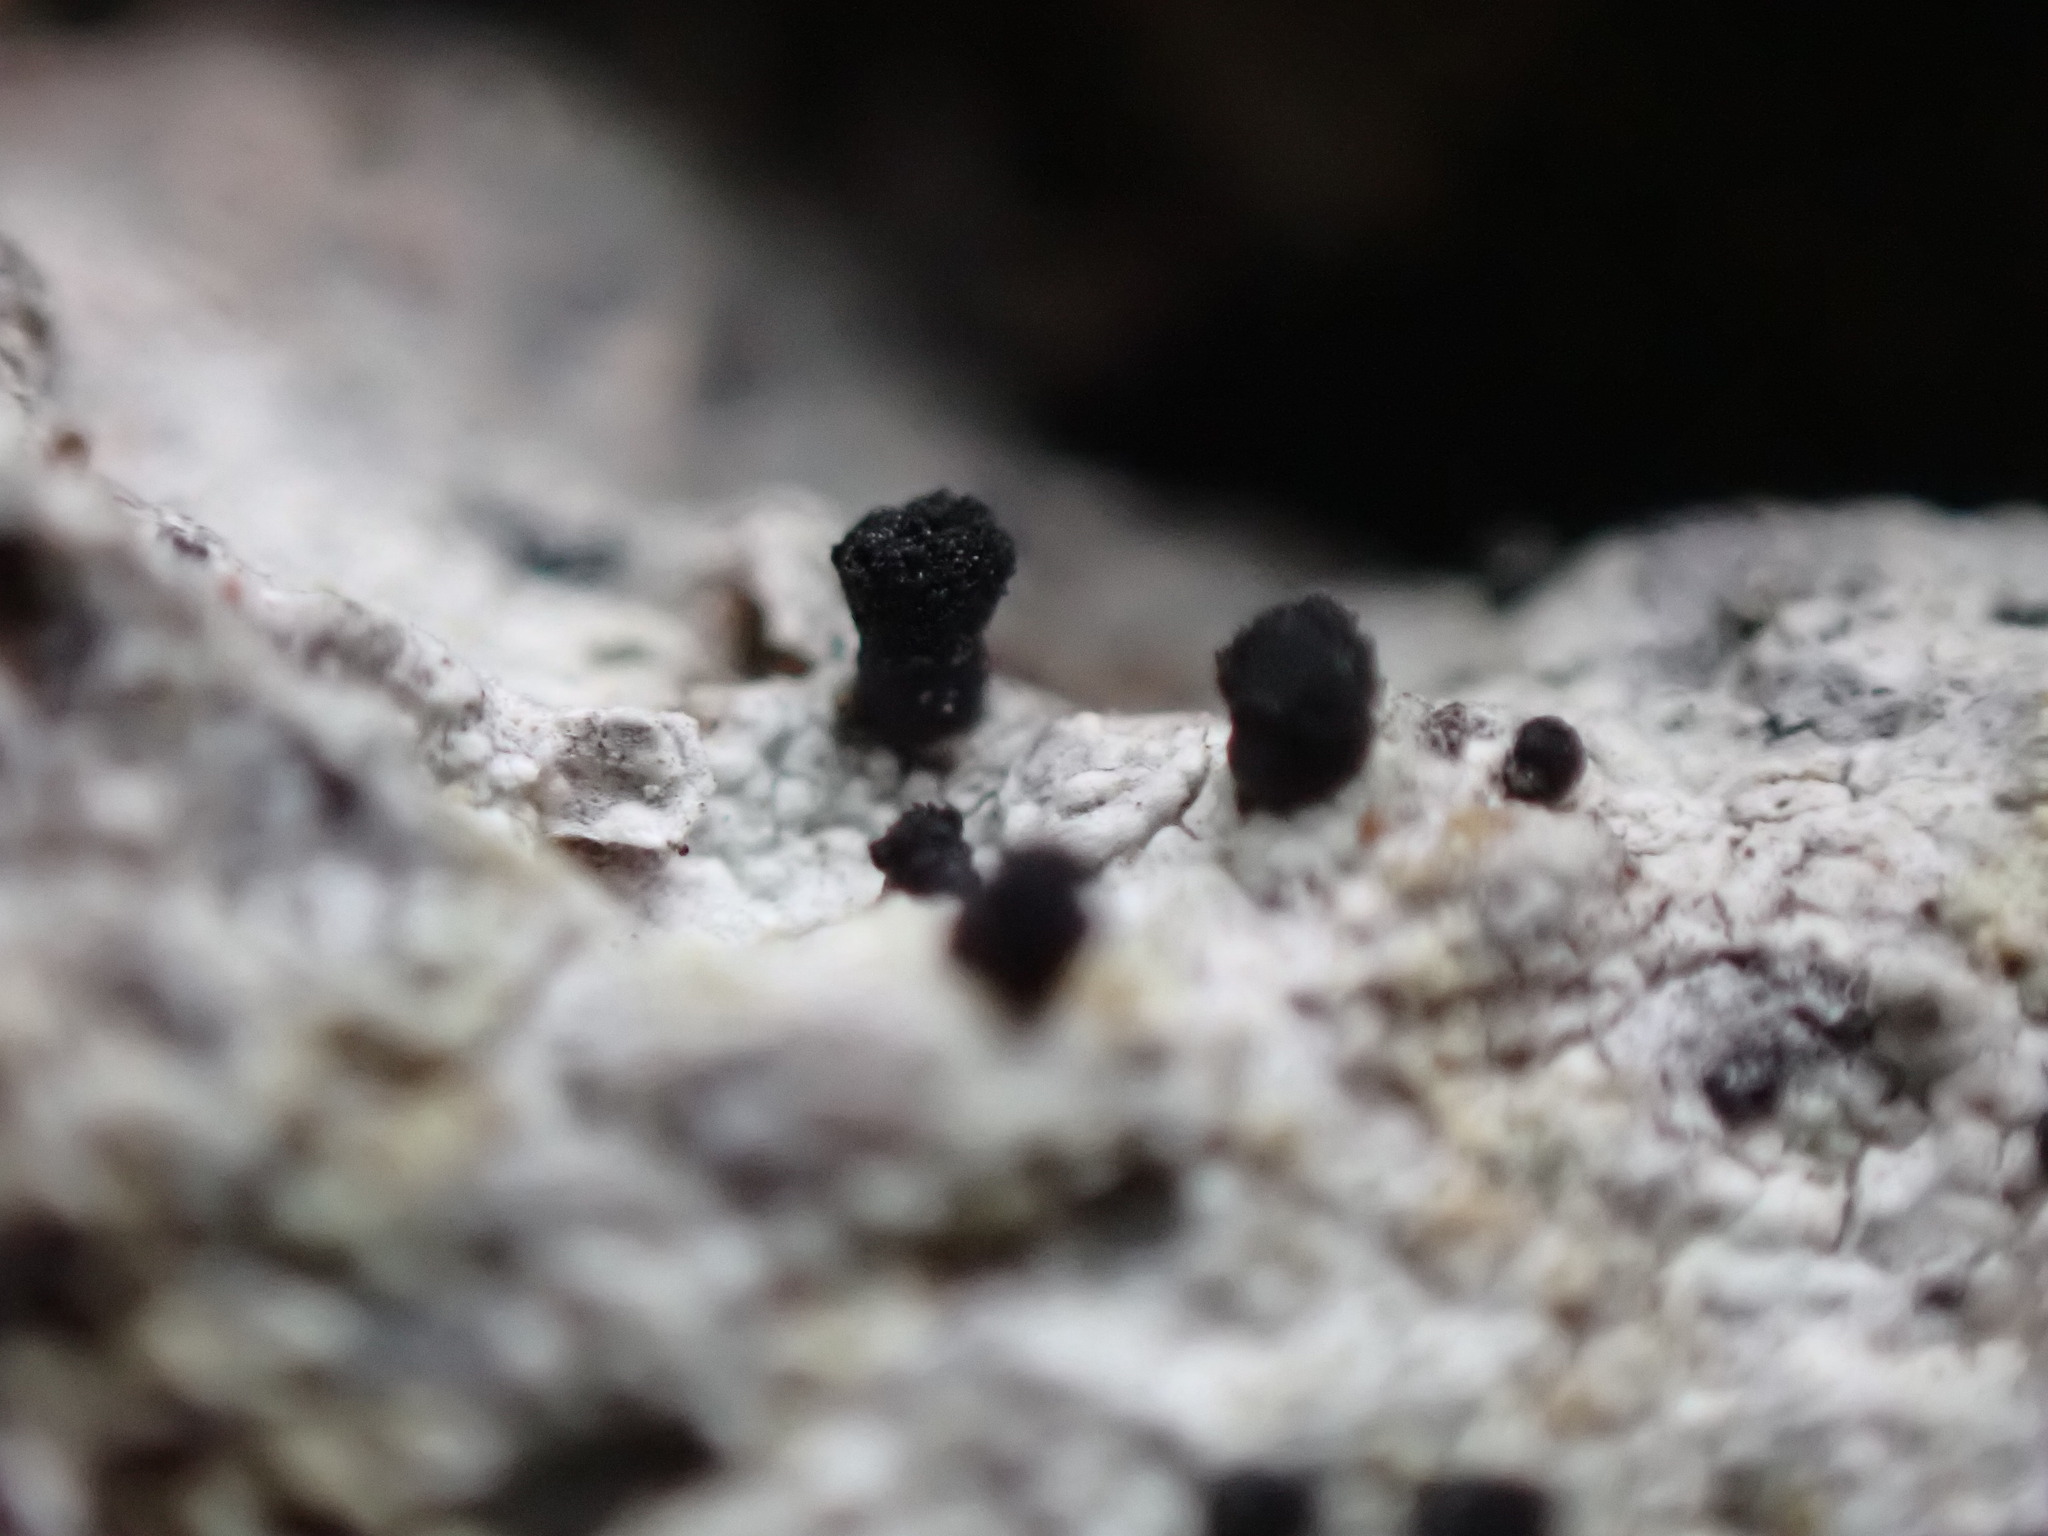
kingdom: Fungi
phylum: Ascomycota
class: Lecanoromycetes
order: Caliciales
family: Caliciaceae
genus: Acolium
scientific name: Acolium inquinans
